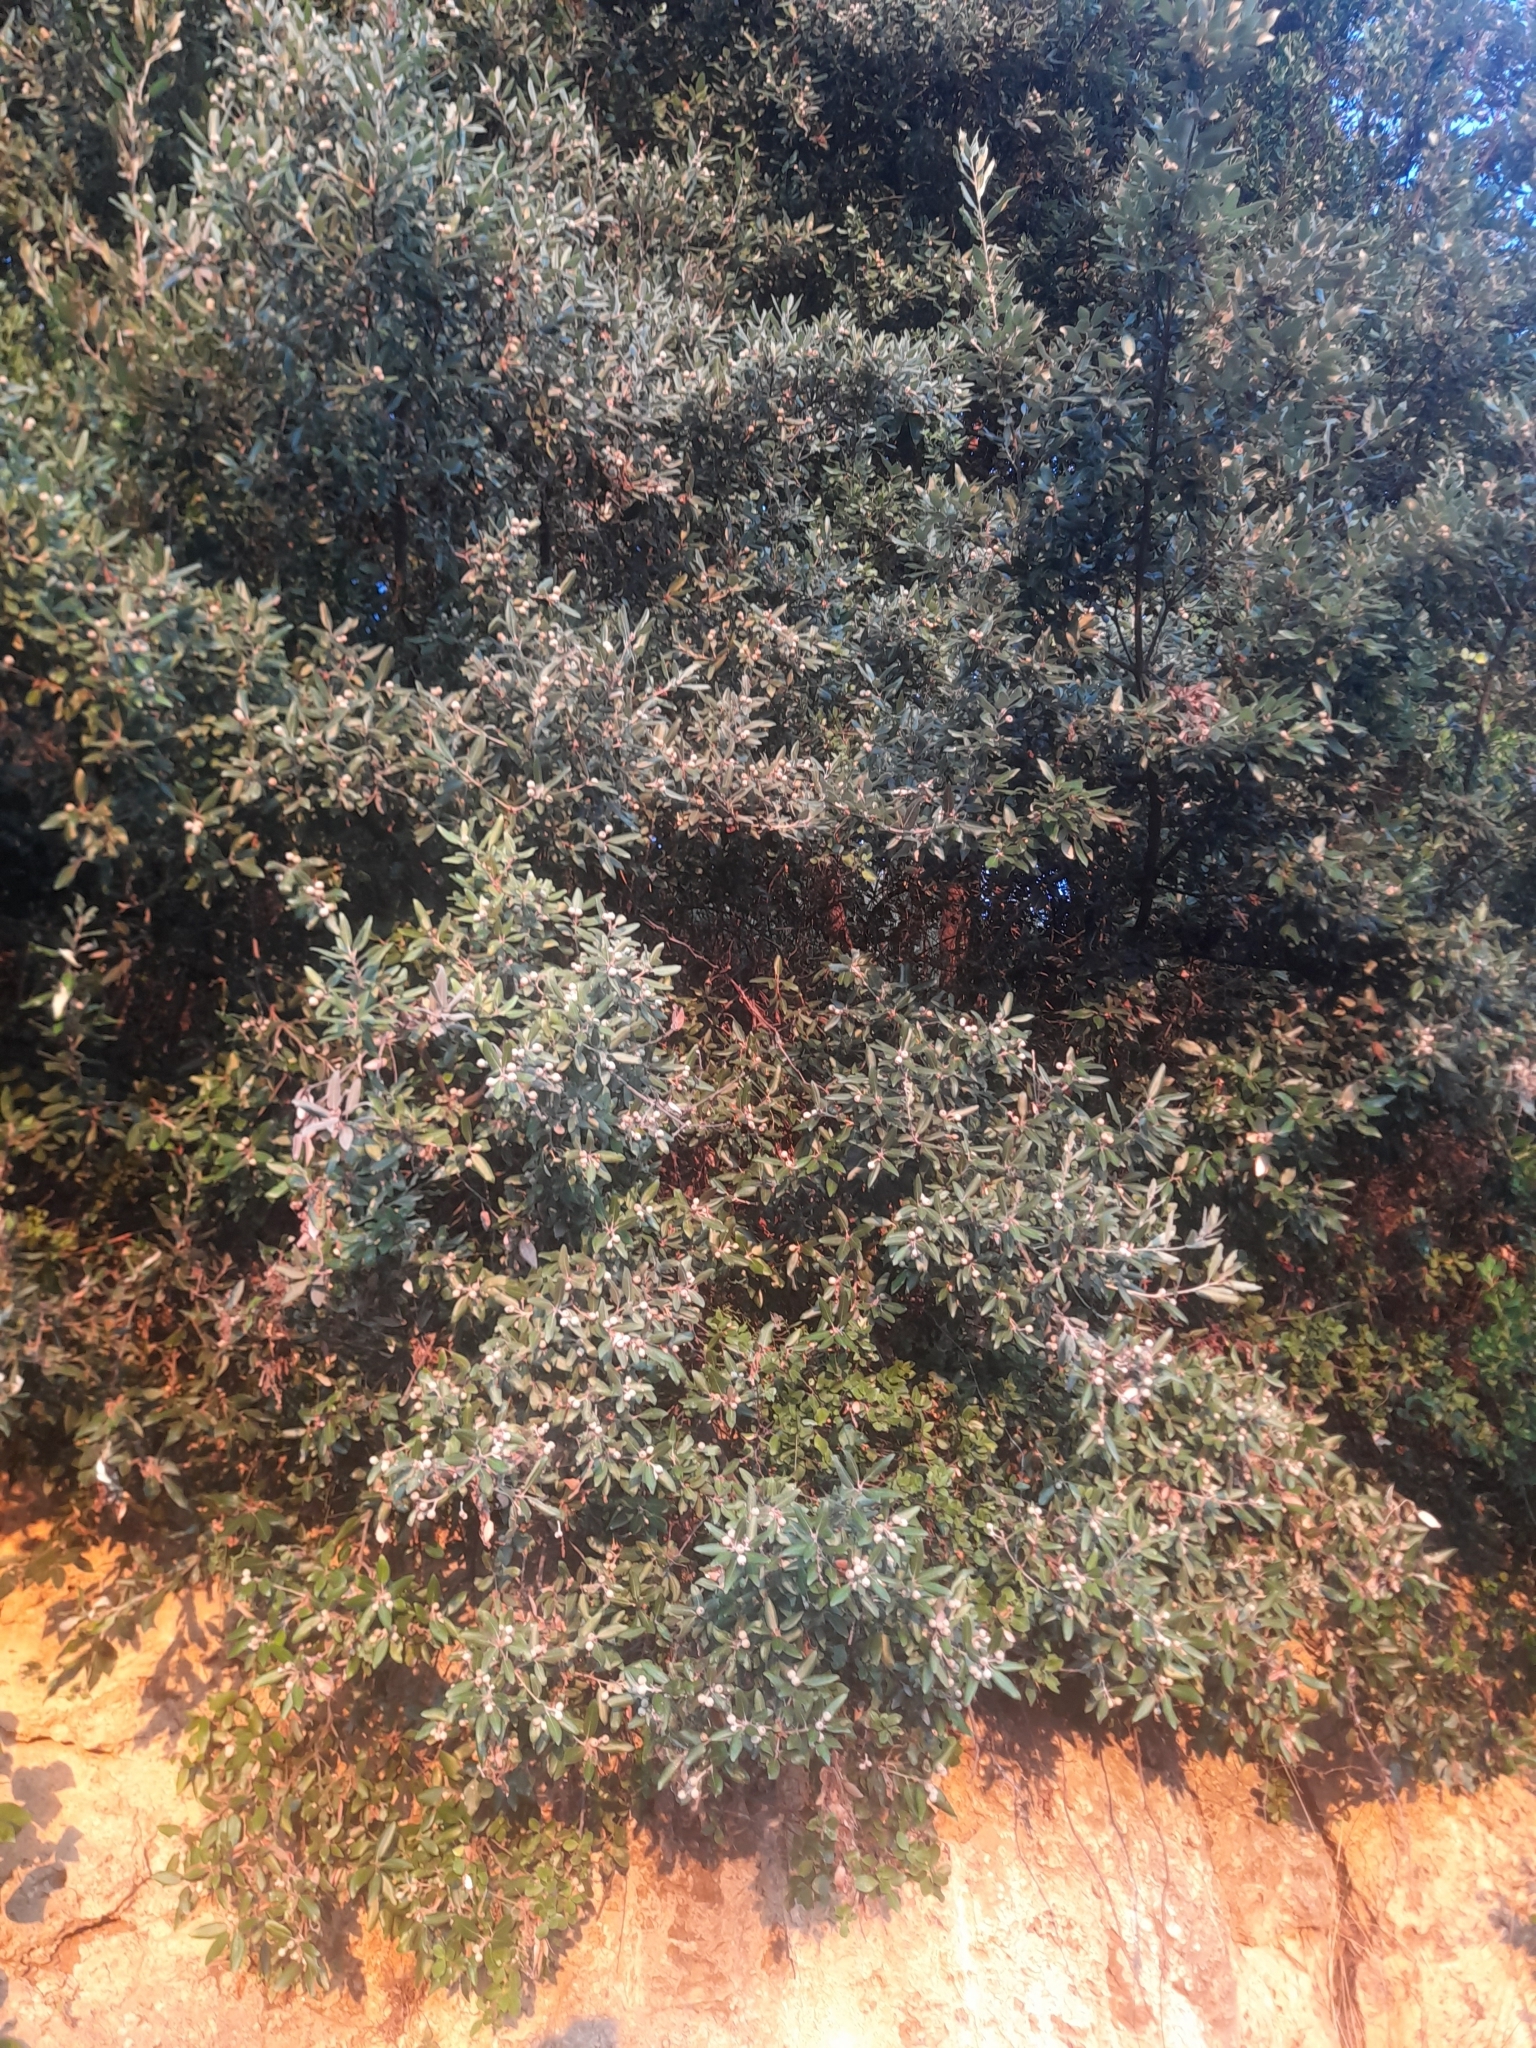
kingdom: Plantae
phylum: Tracheophyta
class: Magnoliopsida
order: Fagales
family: Fagaceae
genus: Quercus
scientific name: Quercus ilex
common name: Evergreen oak
